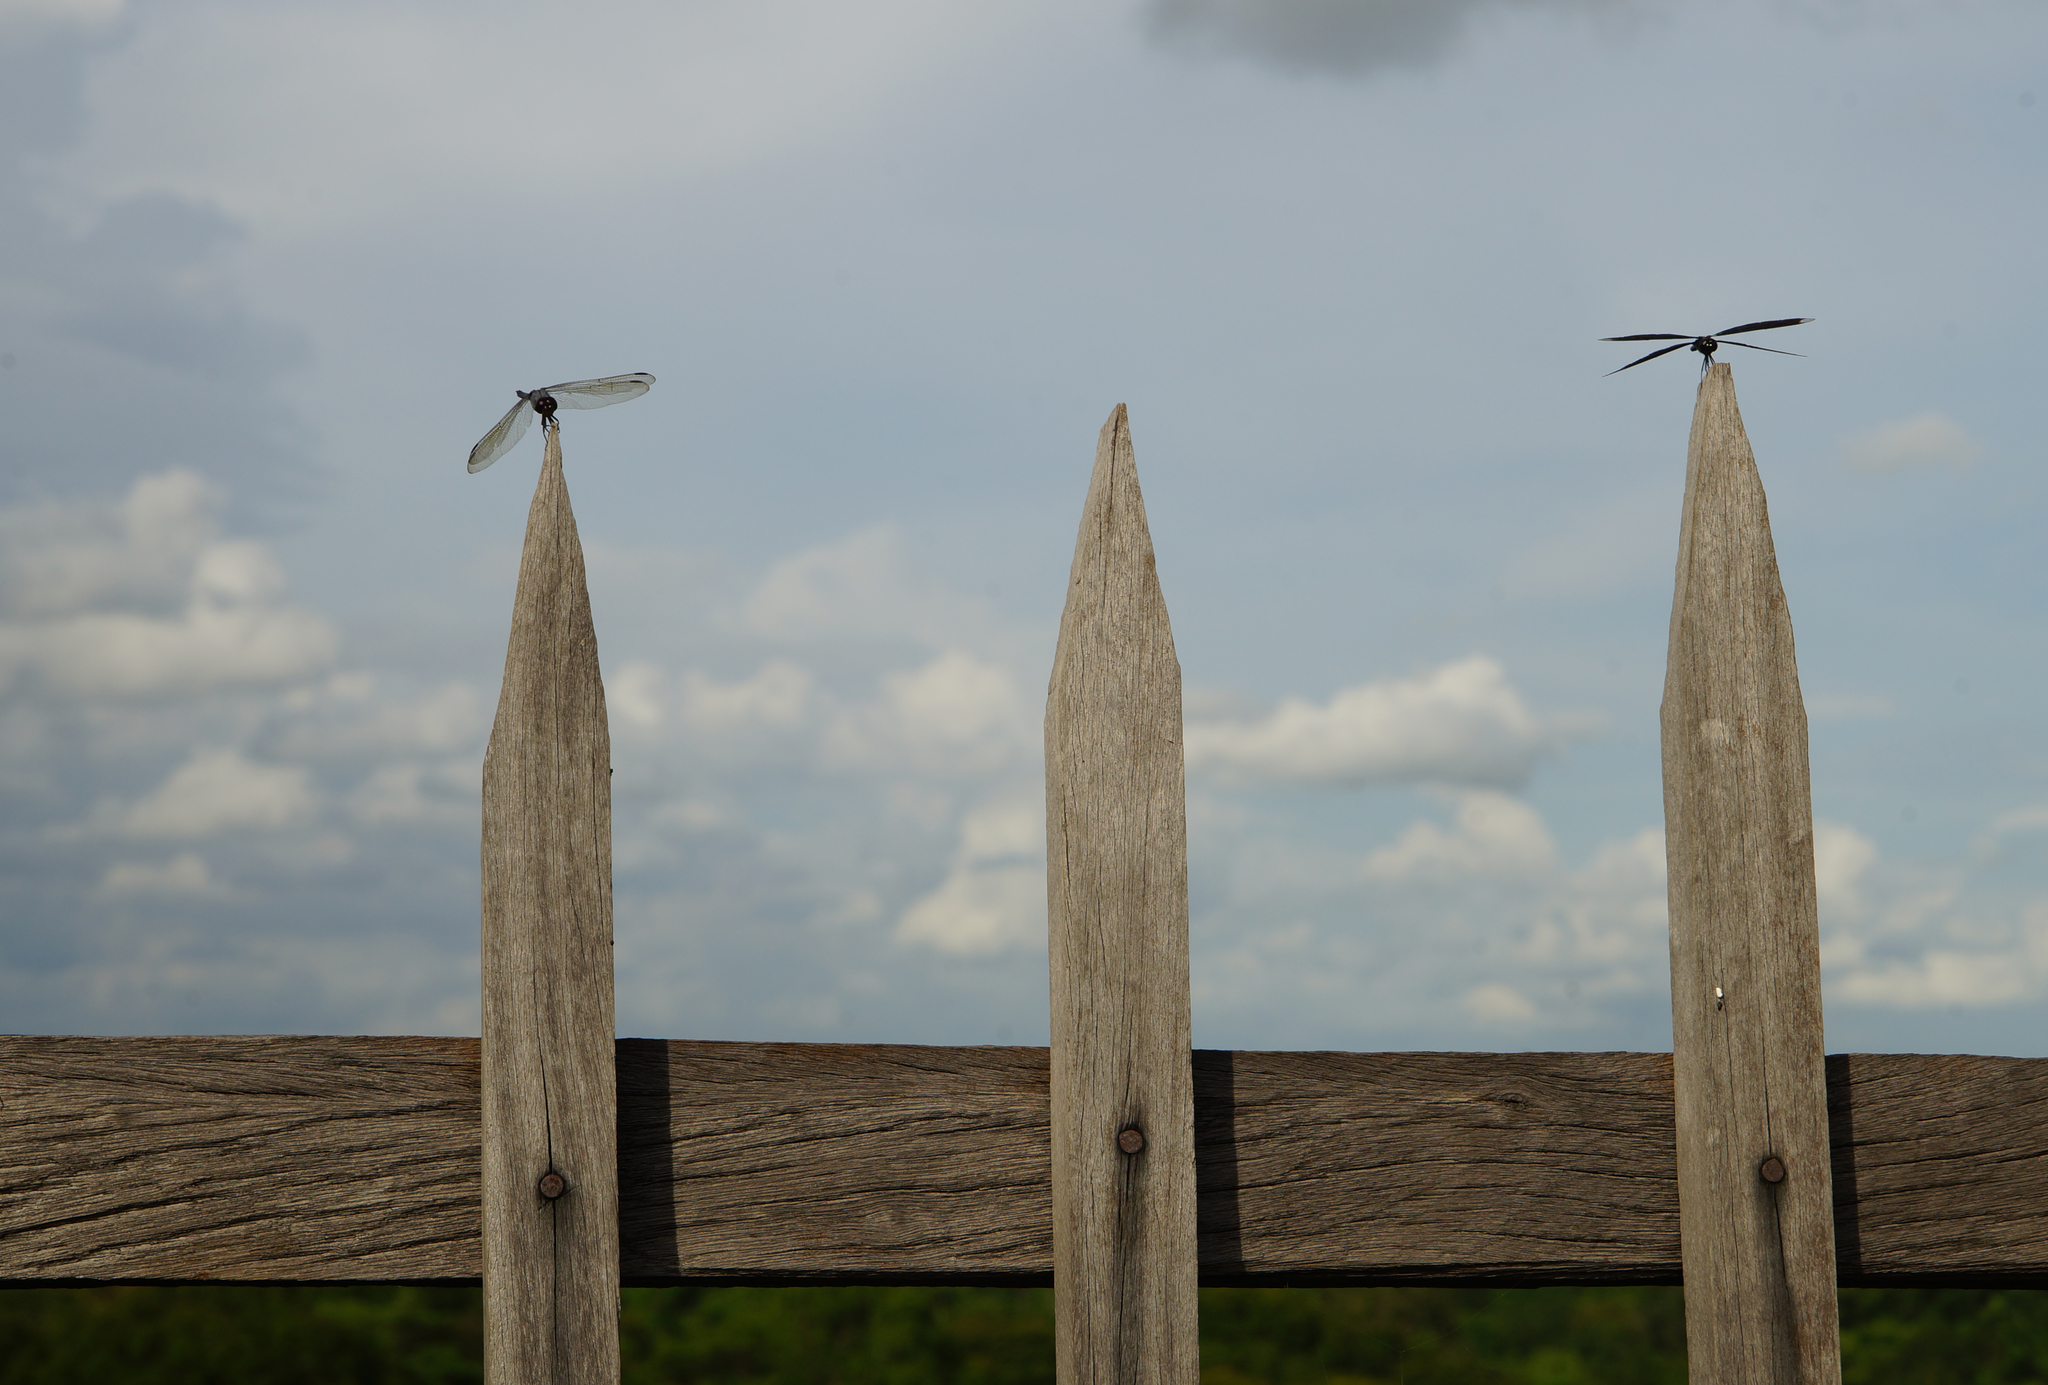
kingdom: Animalia
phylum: Arthropoda
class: Insecta
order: Odonata
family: Libellulidae
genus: Rhyothemis
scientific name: Rhyothemis plutonia
